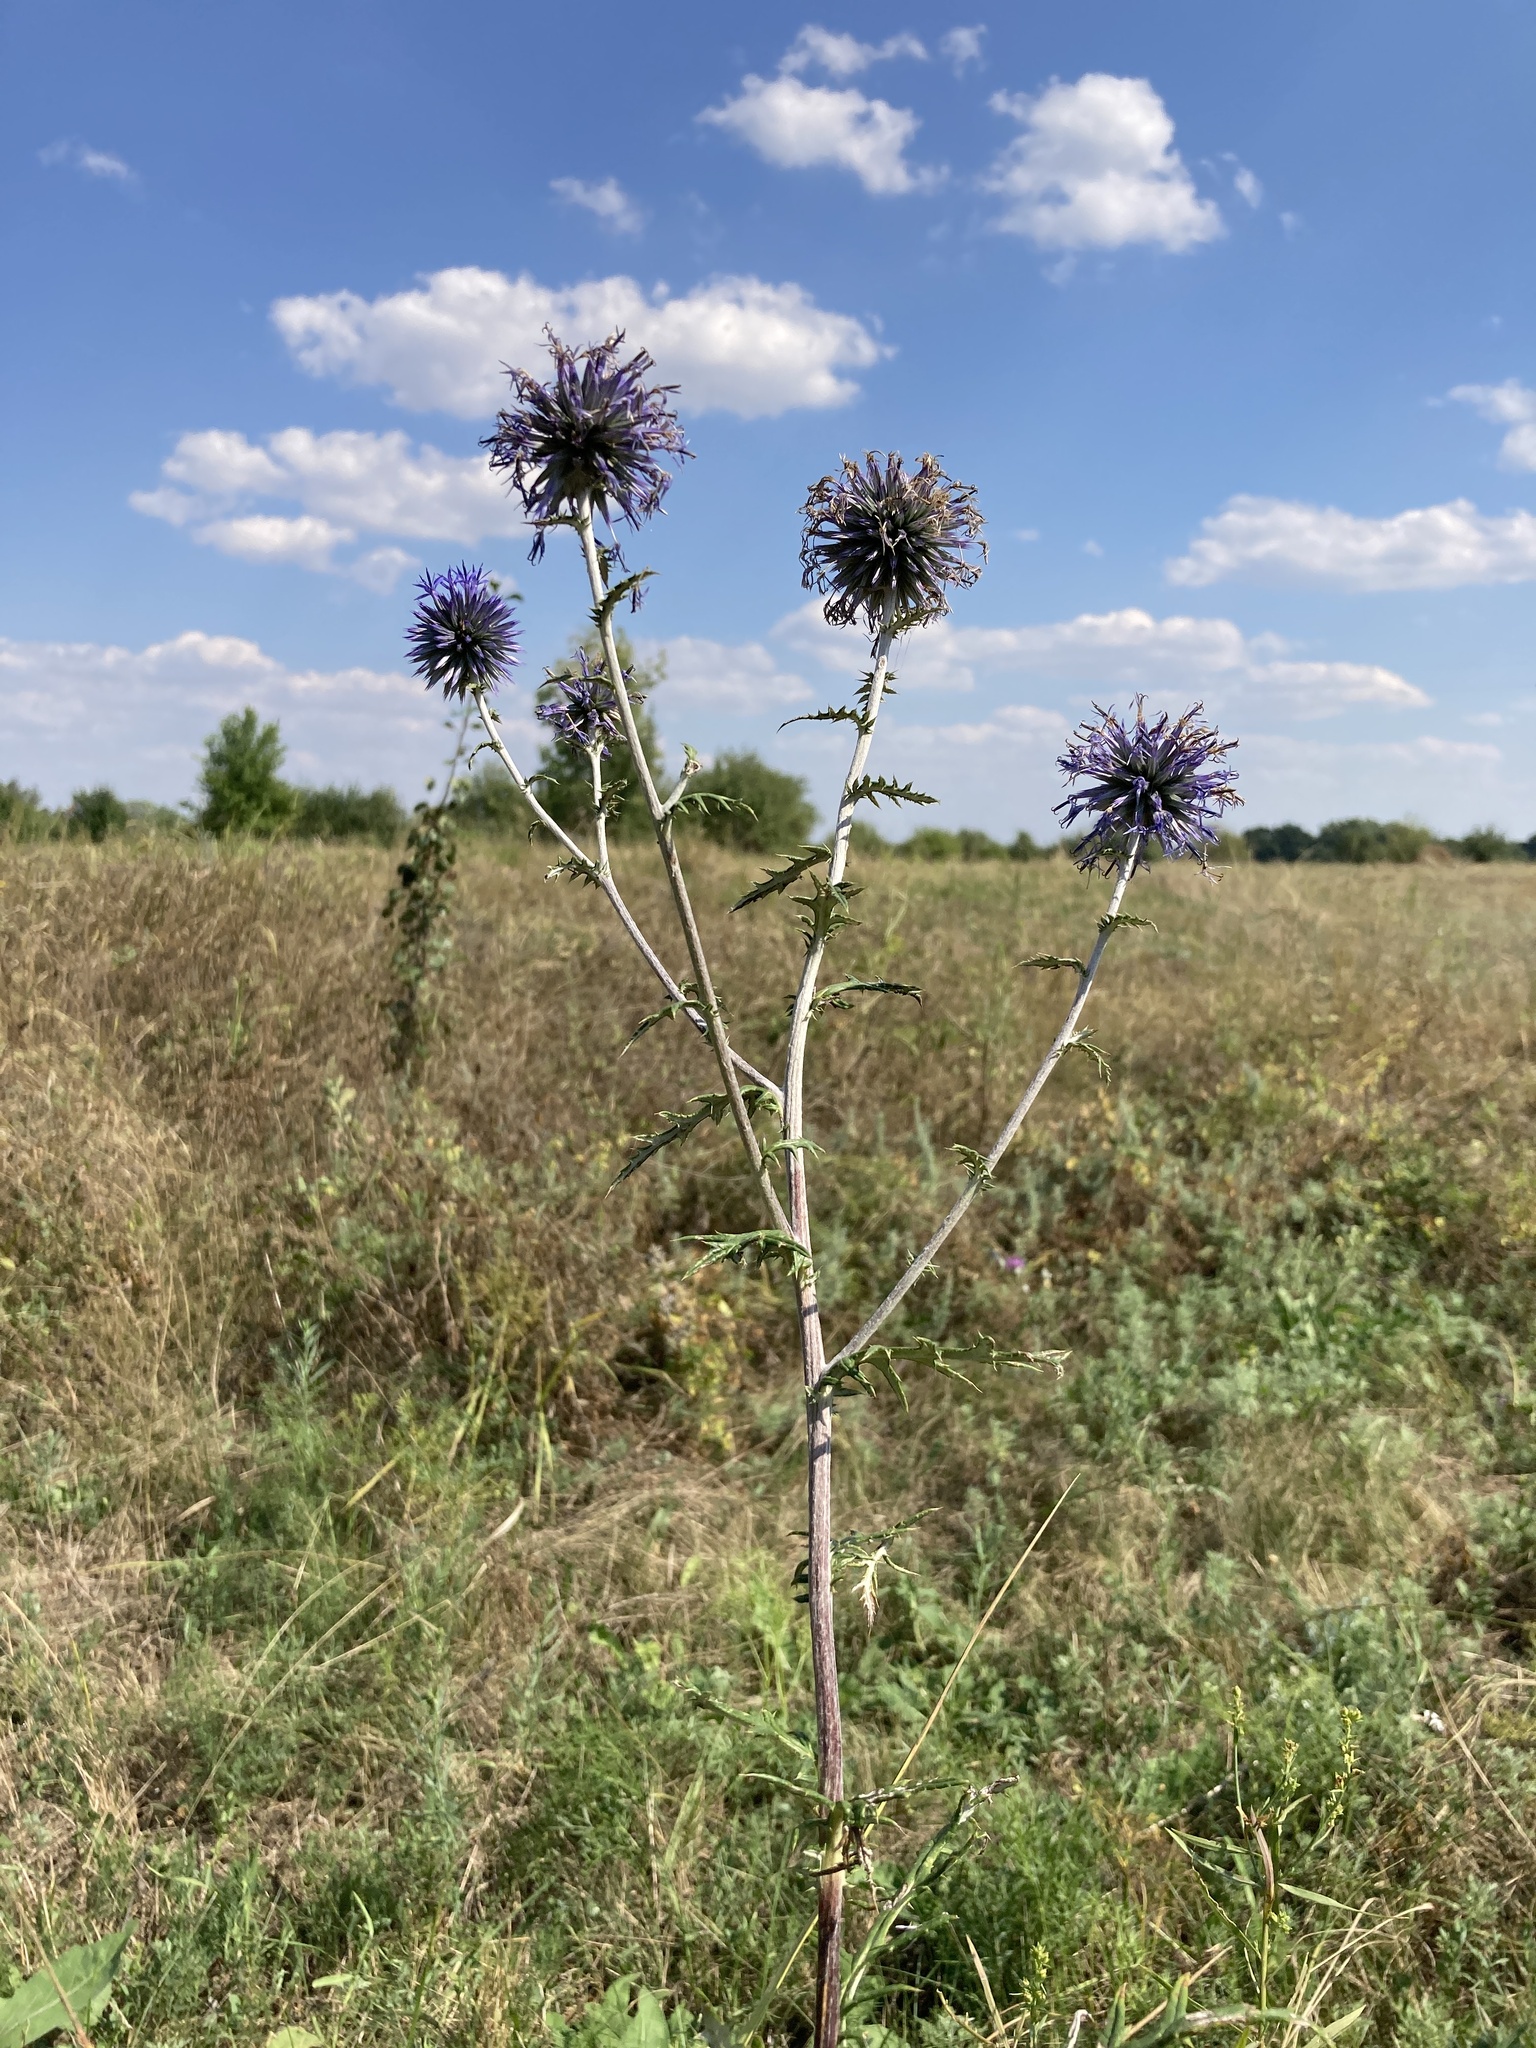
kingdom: Plantae
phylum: Tracheophyta
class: Magnoliopsida
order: Asterales
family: Asteraceae
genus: Echinops
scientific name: Echinops ritro
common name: Globe thistle
